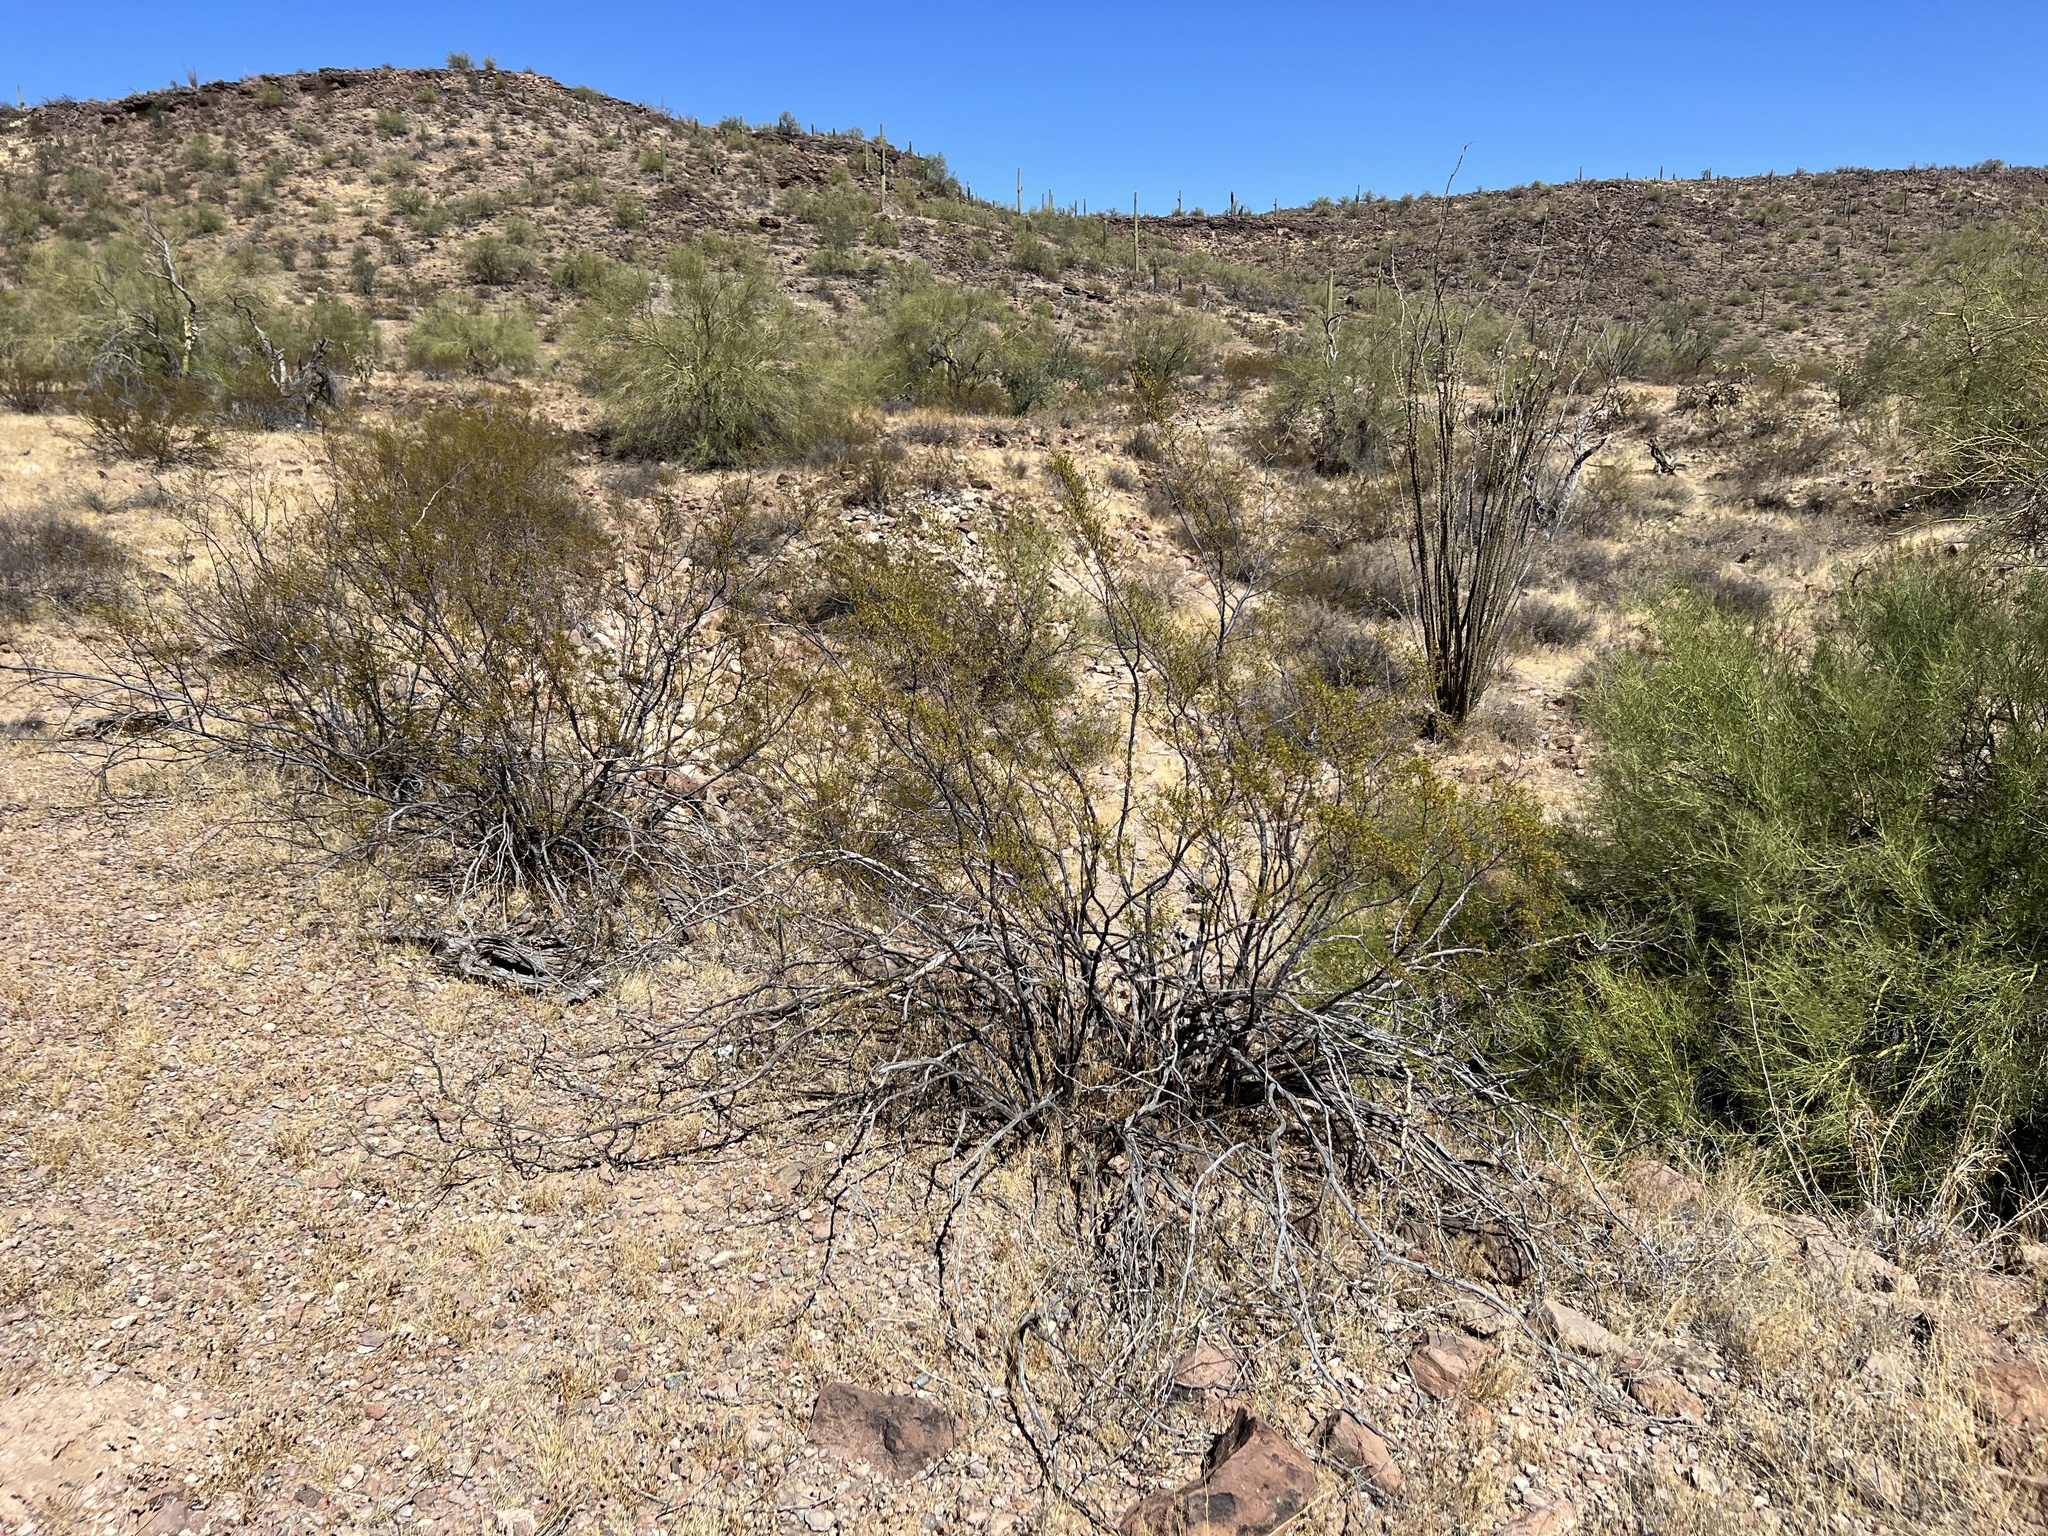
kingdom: Plantae
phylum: Tracheophyta
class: Magnoliopsida
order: Zygophyllales
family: Zygophyllaceae
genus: Larrea
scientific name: Larrea tridentata
